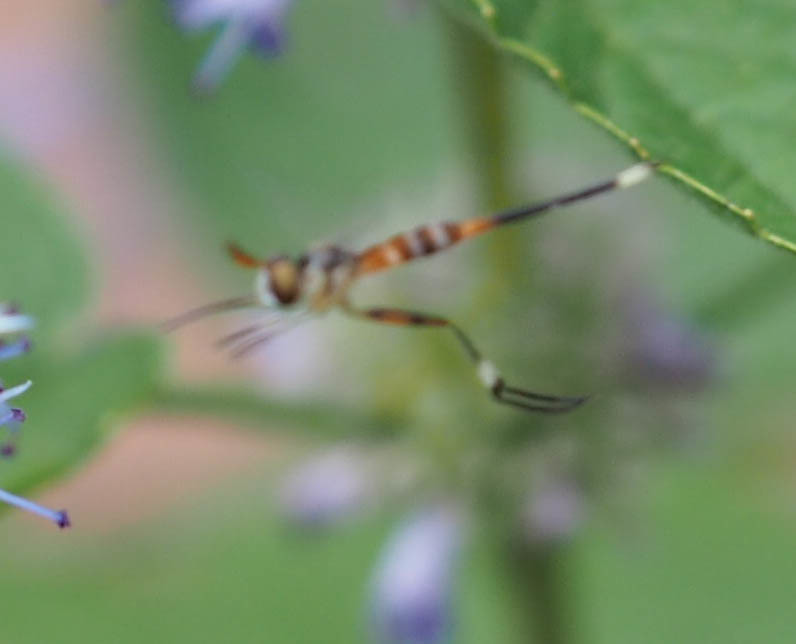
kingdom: Animalia
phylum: Arthropoda
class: Insecta
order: Diptera
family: Conopidae
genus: Stylogaster
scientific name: Stylogaster neglecta
